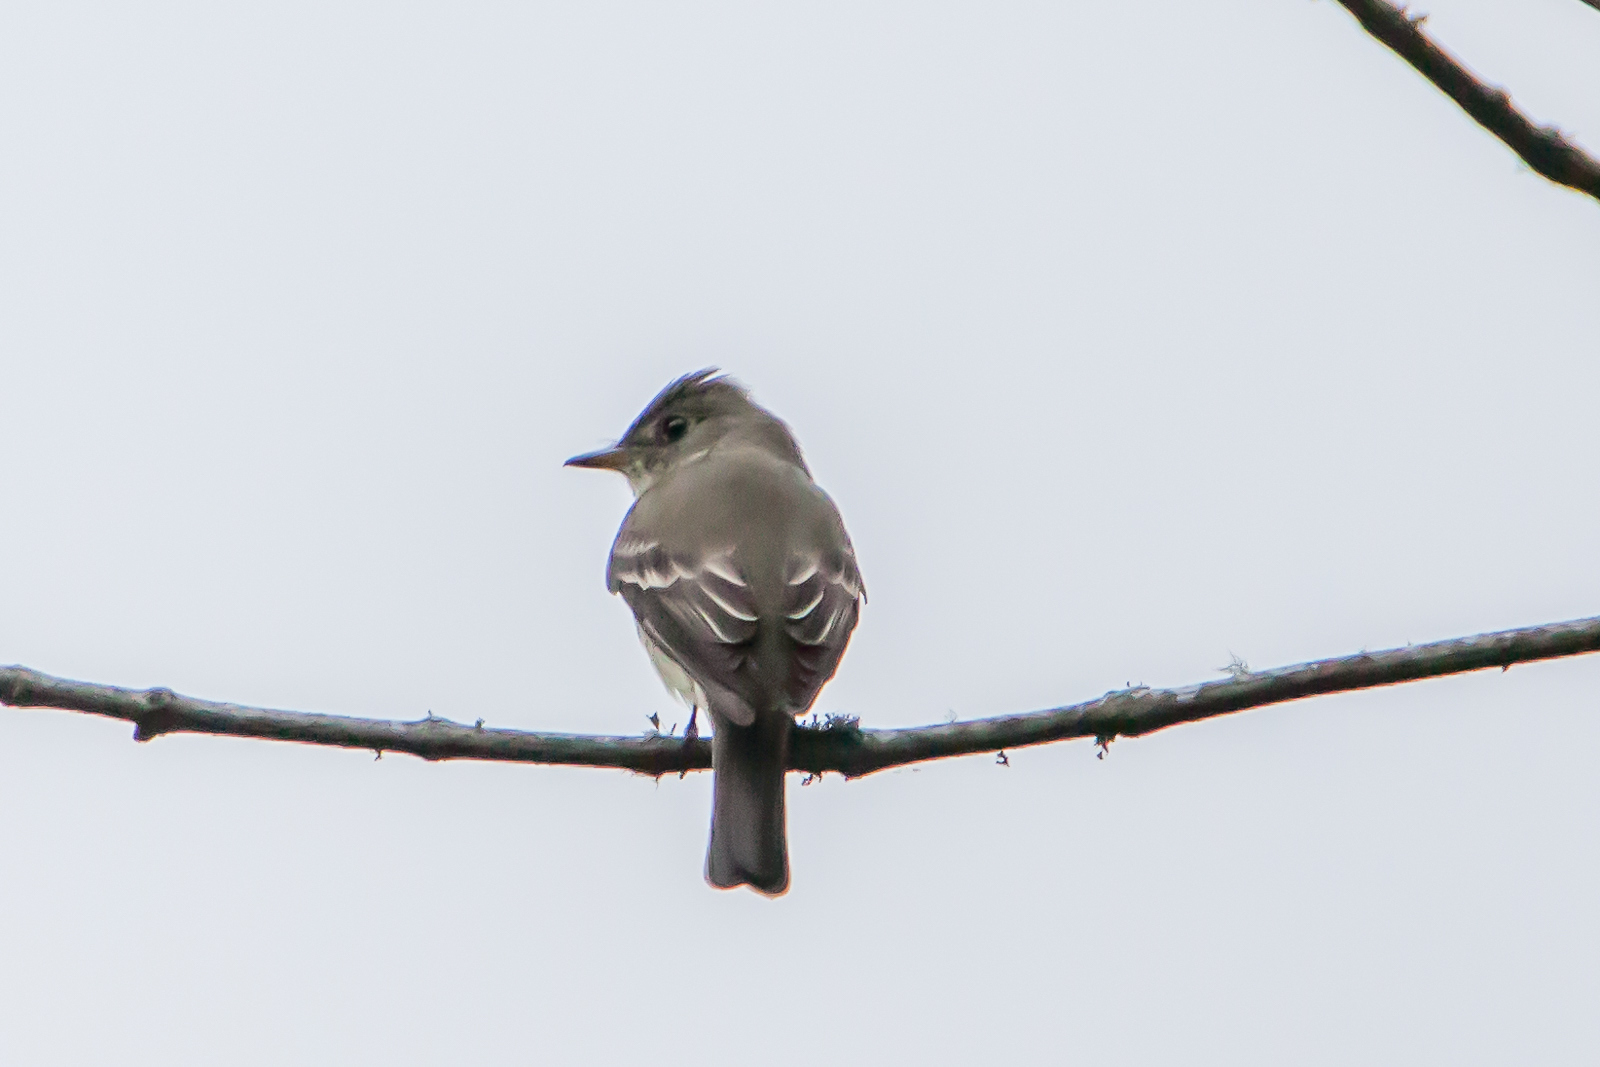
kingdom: Animalia
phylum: Chordata
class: Aves
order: Passeriformes
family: Tyrannidae
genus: Empidonax
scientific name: Empidonax virescens
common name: Acadian flycatcher
